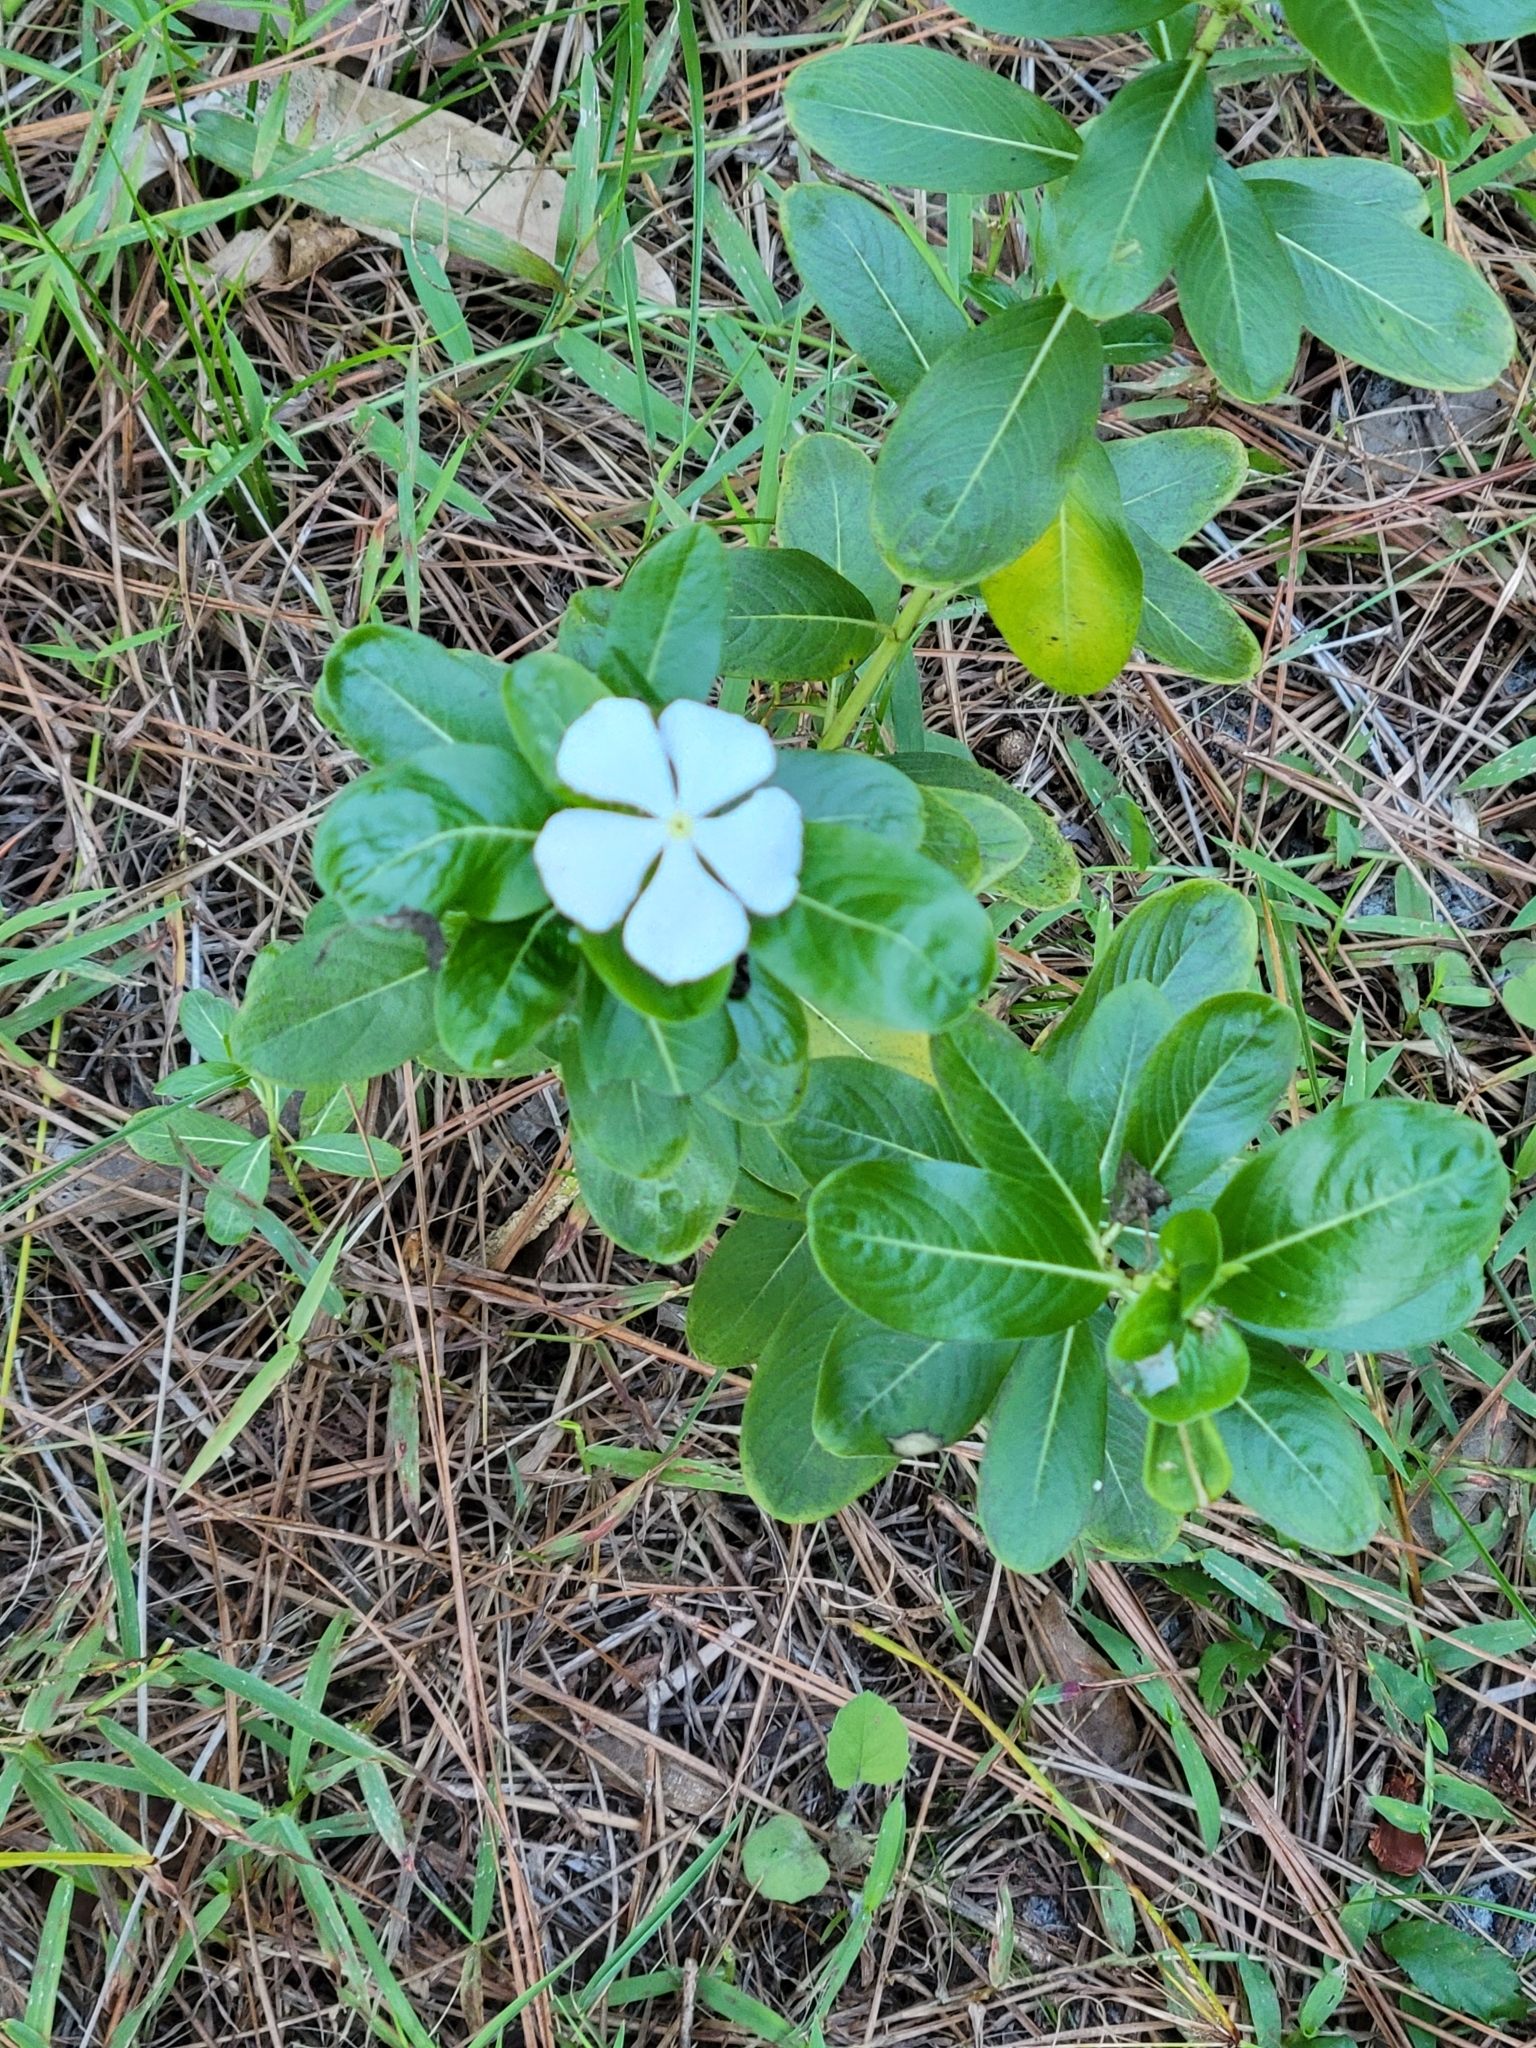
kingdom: Plantae
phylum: Tracheophyta
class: Magnoliopsida
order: Gentianales
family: Apocynaceae
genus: Catharanthus
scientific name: Catharanthus roseus
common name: Madagascar periwinkle
